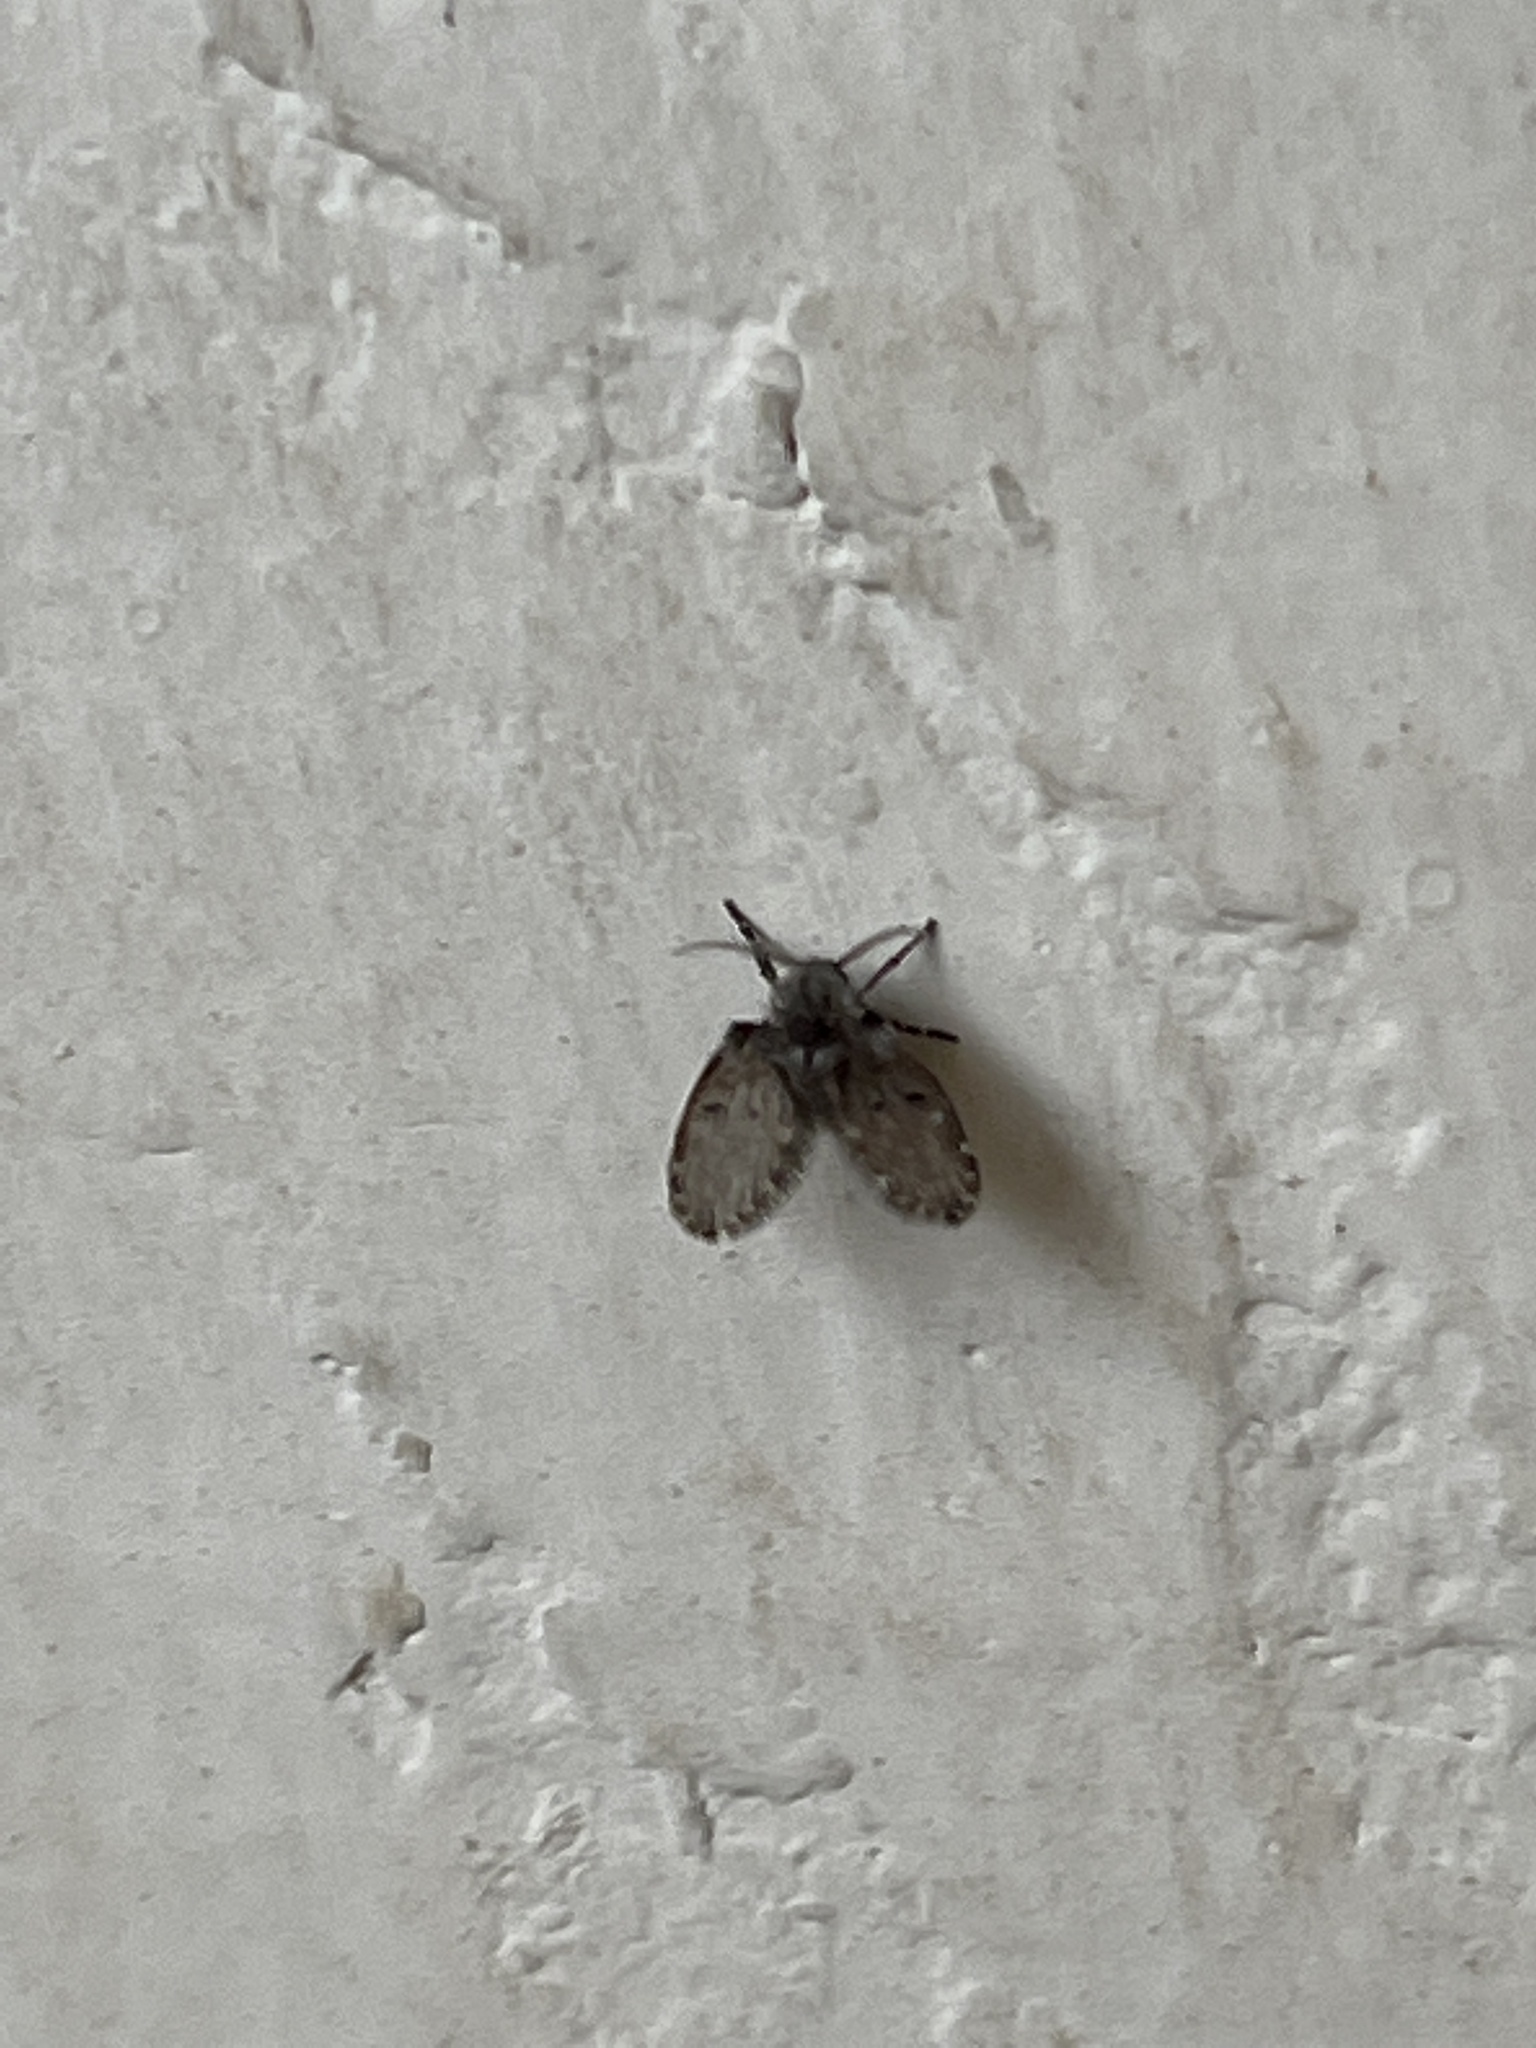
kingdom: Animalia
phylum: Arthropoda
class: Insecta
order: Diptera
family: Psychodidae
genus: Clogmia
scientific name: Clogmia albipunctatus
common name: White-spotted moth fly
